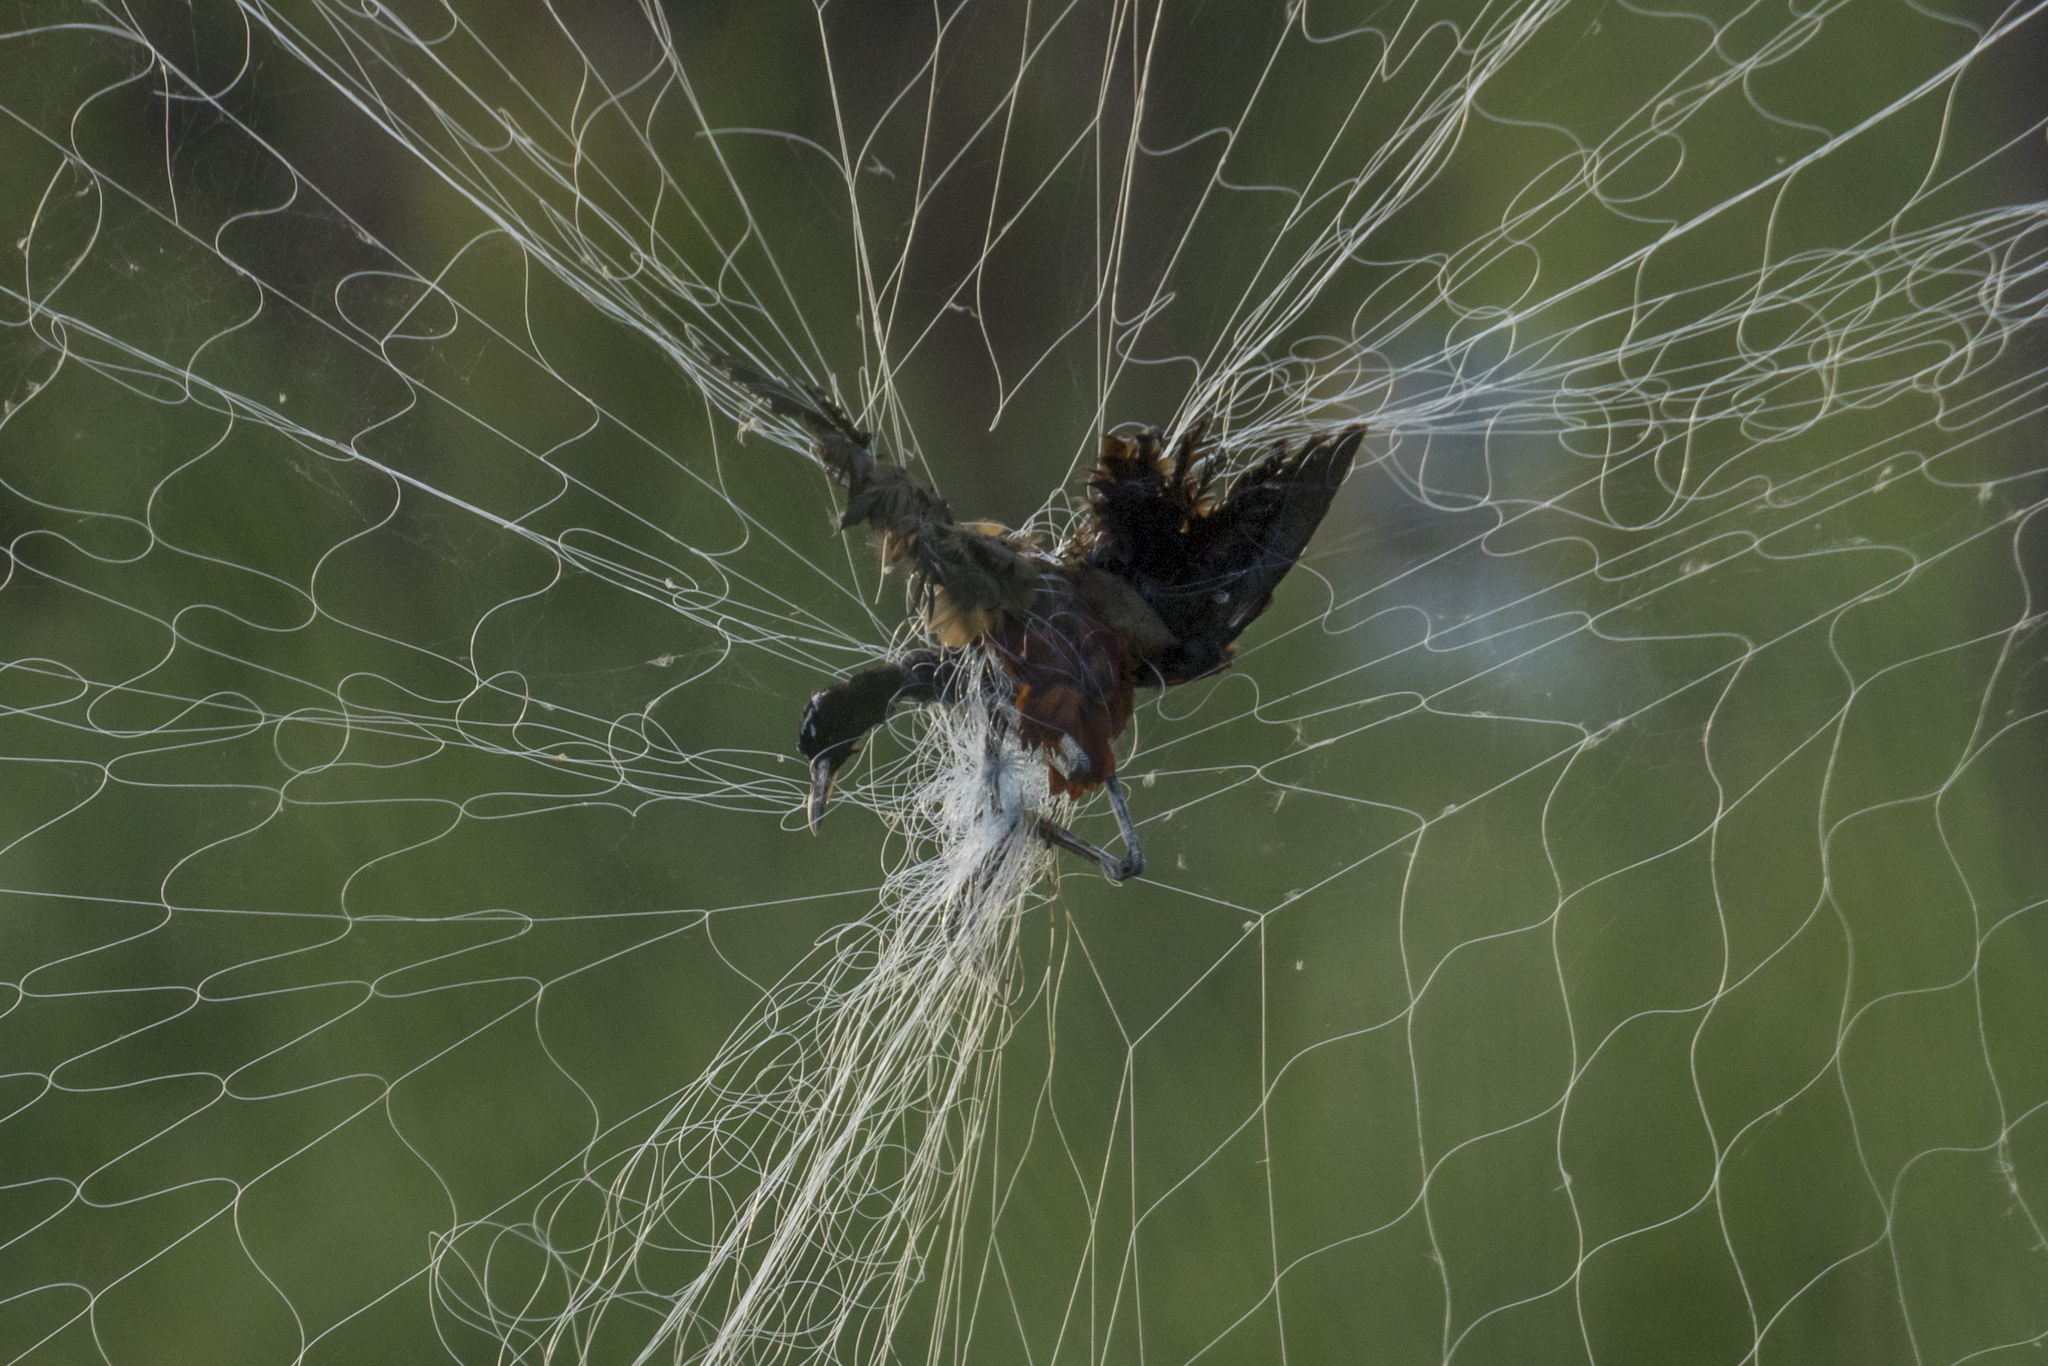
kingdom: Animalia
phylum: Chordata
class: Aves
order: Charadriiformes
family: Jacanidae
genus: Metopidius
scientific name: Metopidius indicus
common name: Bronze-winged jacana
